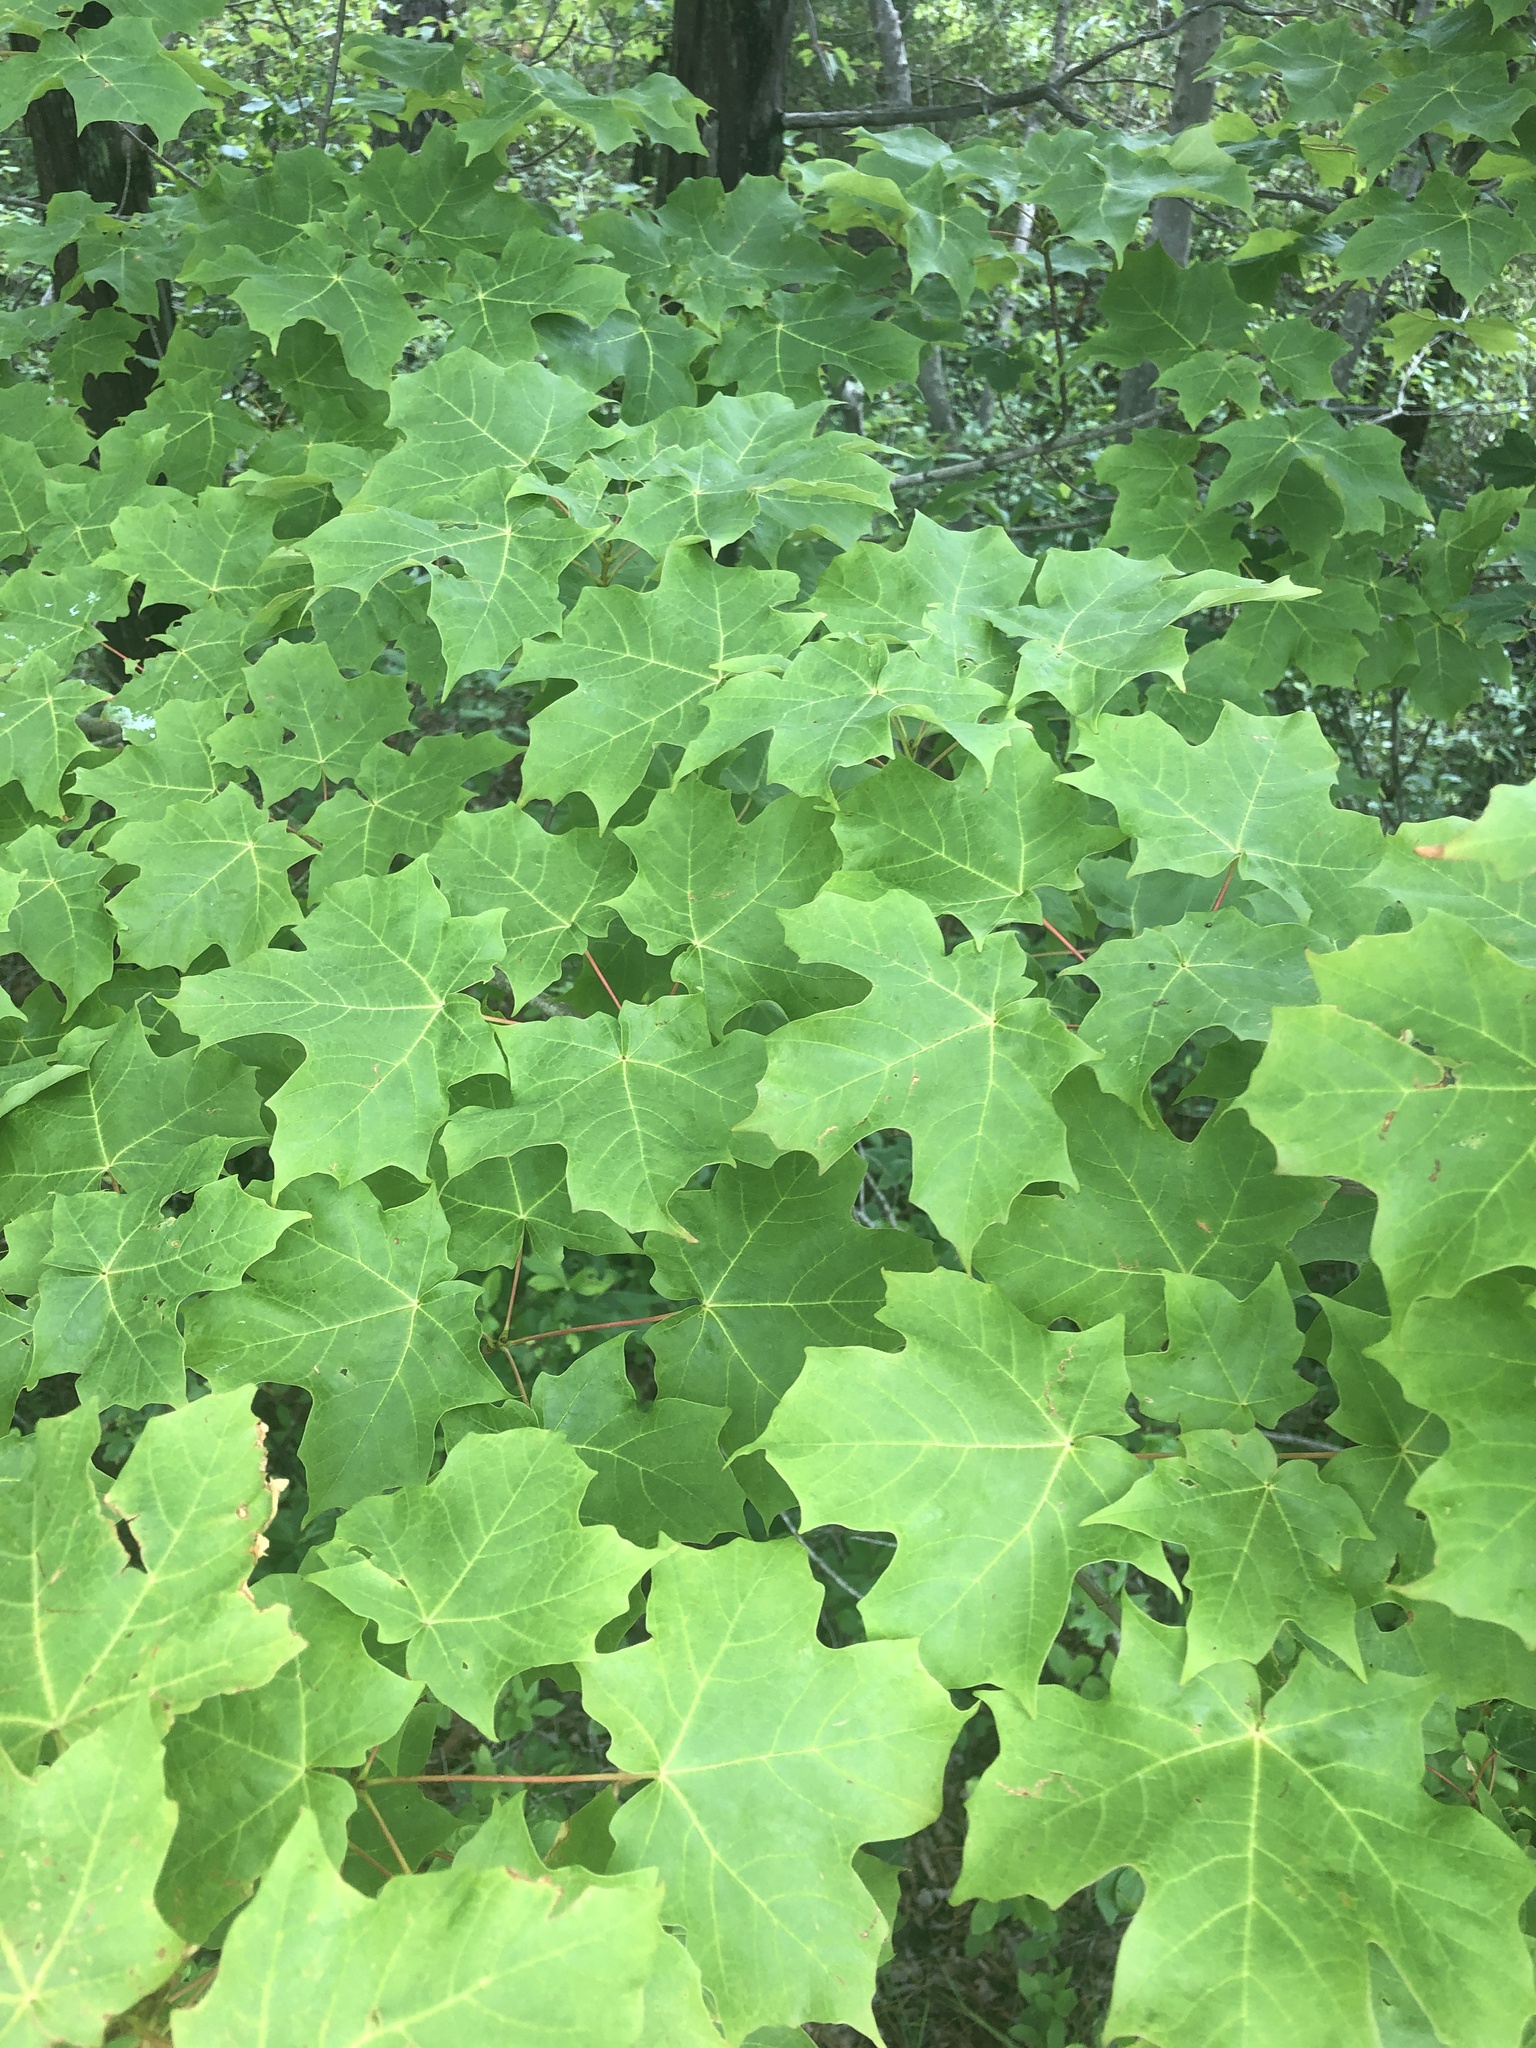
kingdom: Plantae
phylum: Tracheophyta
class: Magnoliopsida
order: Sapindales
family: Sapindaceae
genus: Acer
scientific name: Acer saccharum
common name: Sugar maple
